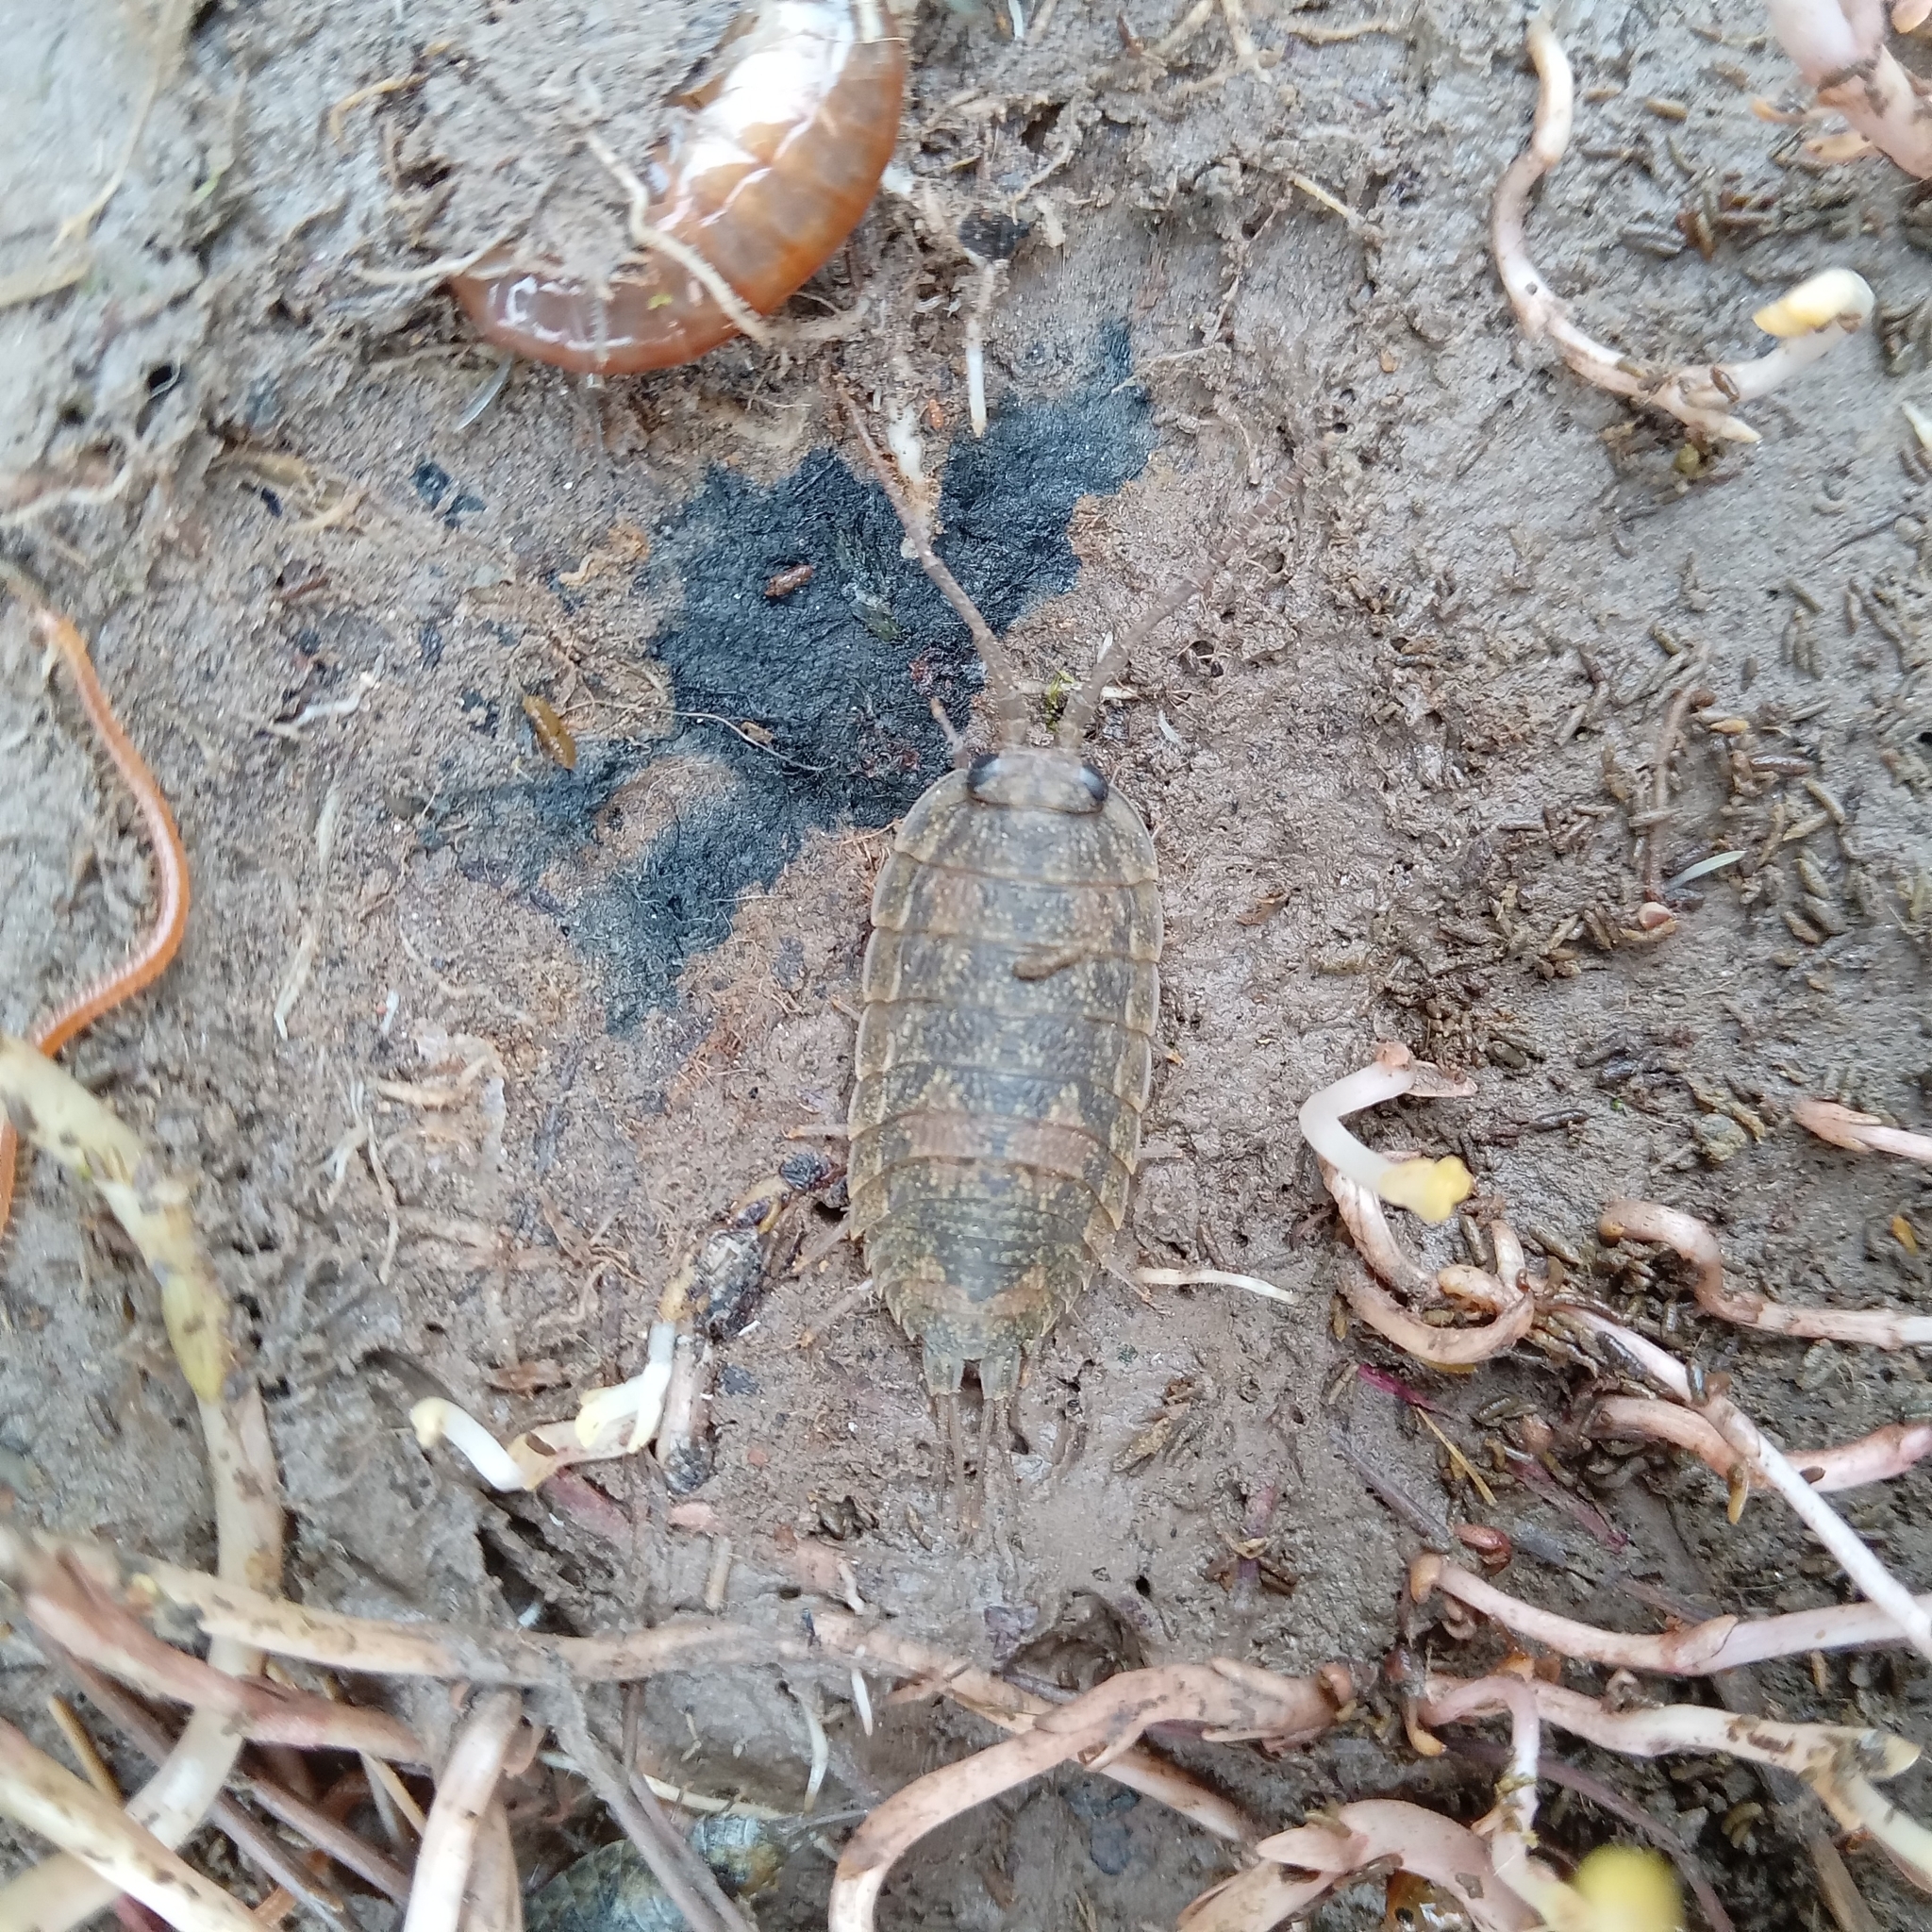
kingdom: Animalia
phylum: Arthropoda
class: Malacostraca
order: Isopoda
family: Ligiidae
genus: Ligia
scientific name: Ligia oceanica
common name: Sea slater
